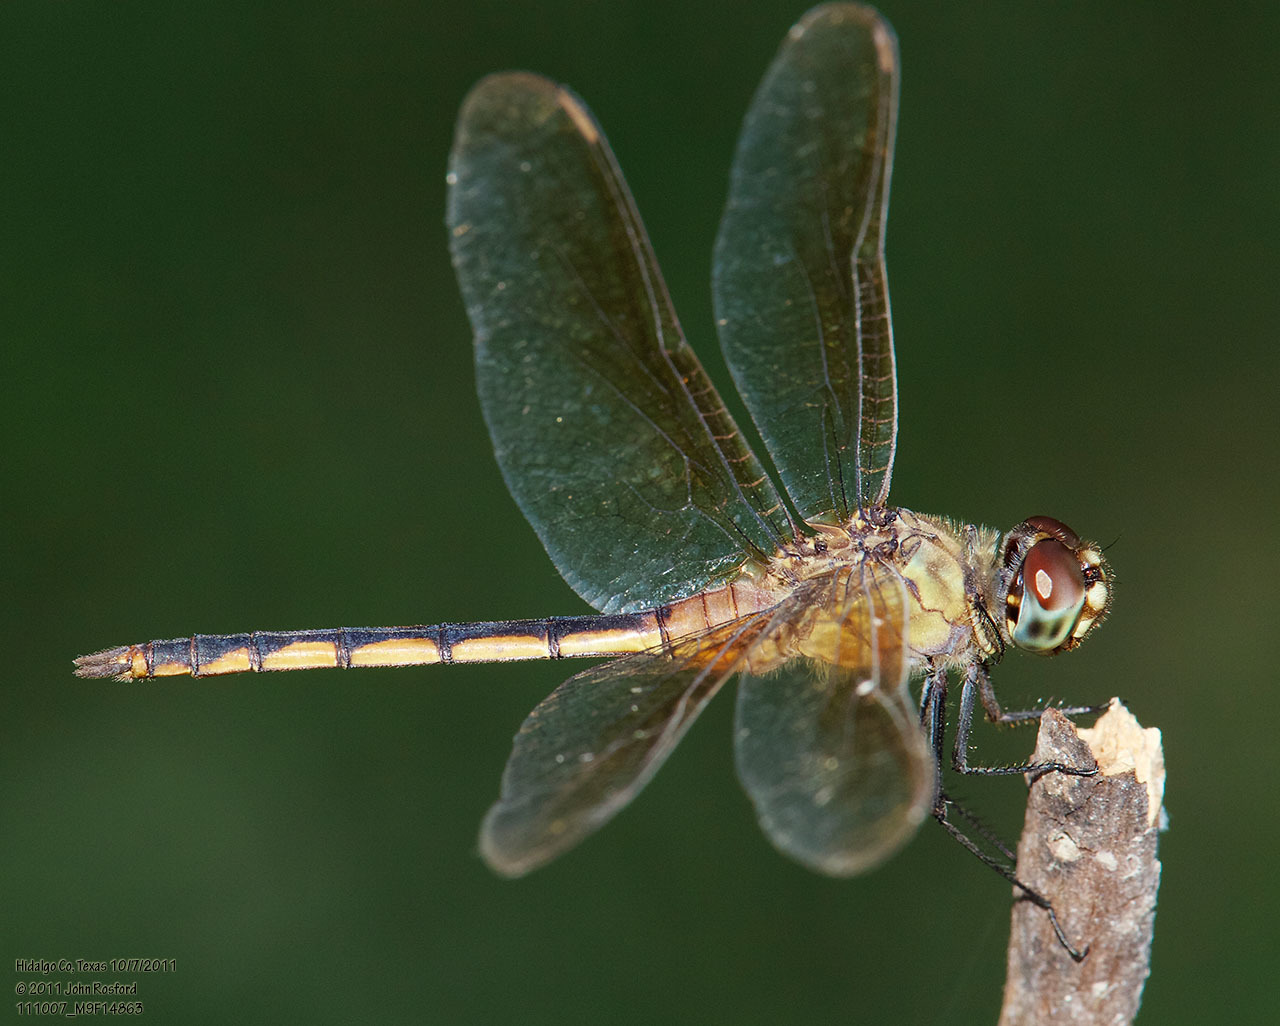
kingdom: Animalia
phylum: Arthropoda
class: Insecta
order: Odonata
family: Libellulidae
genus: Brachymesia
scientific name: Brachymesia herbida
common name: Tawny pennant
